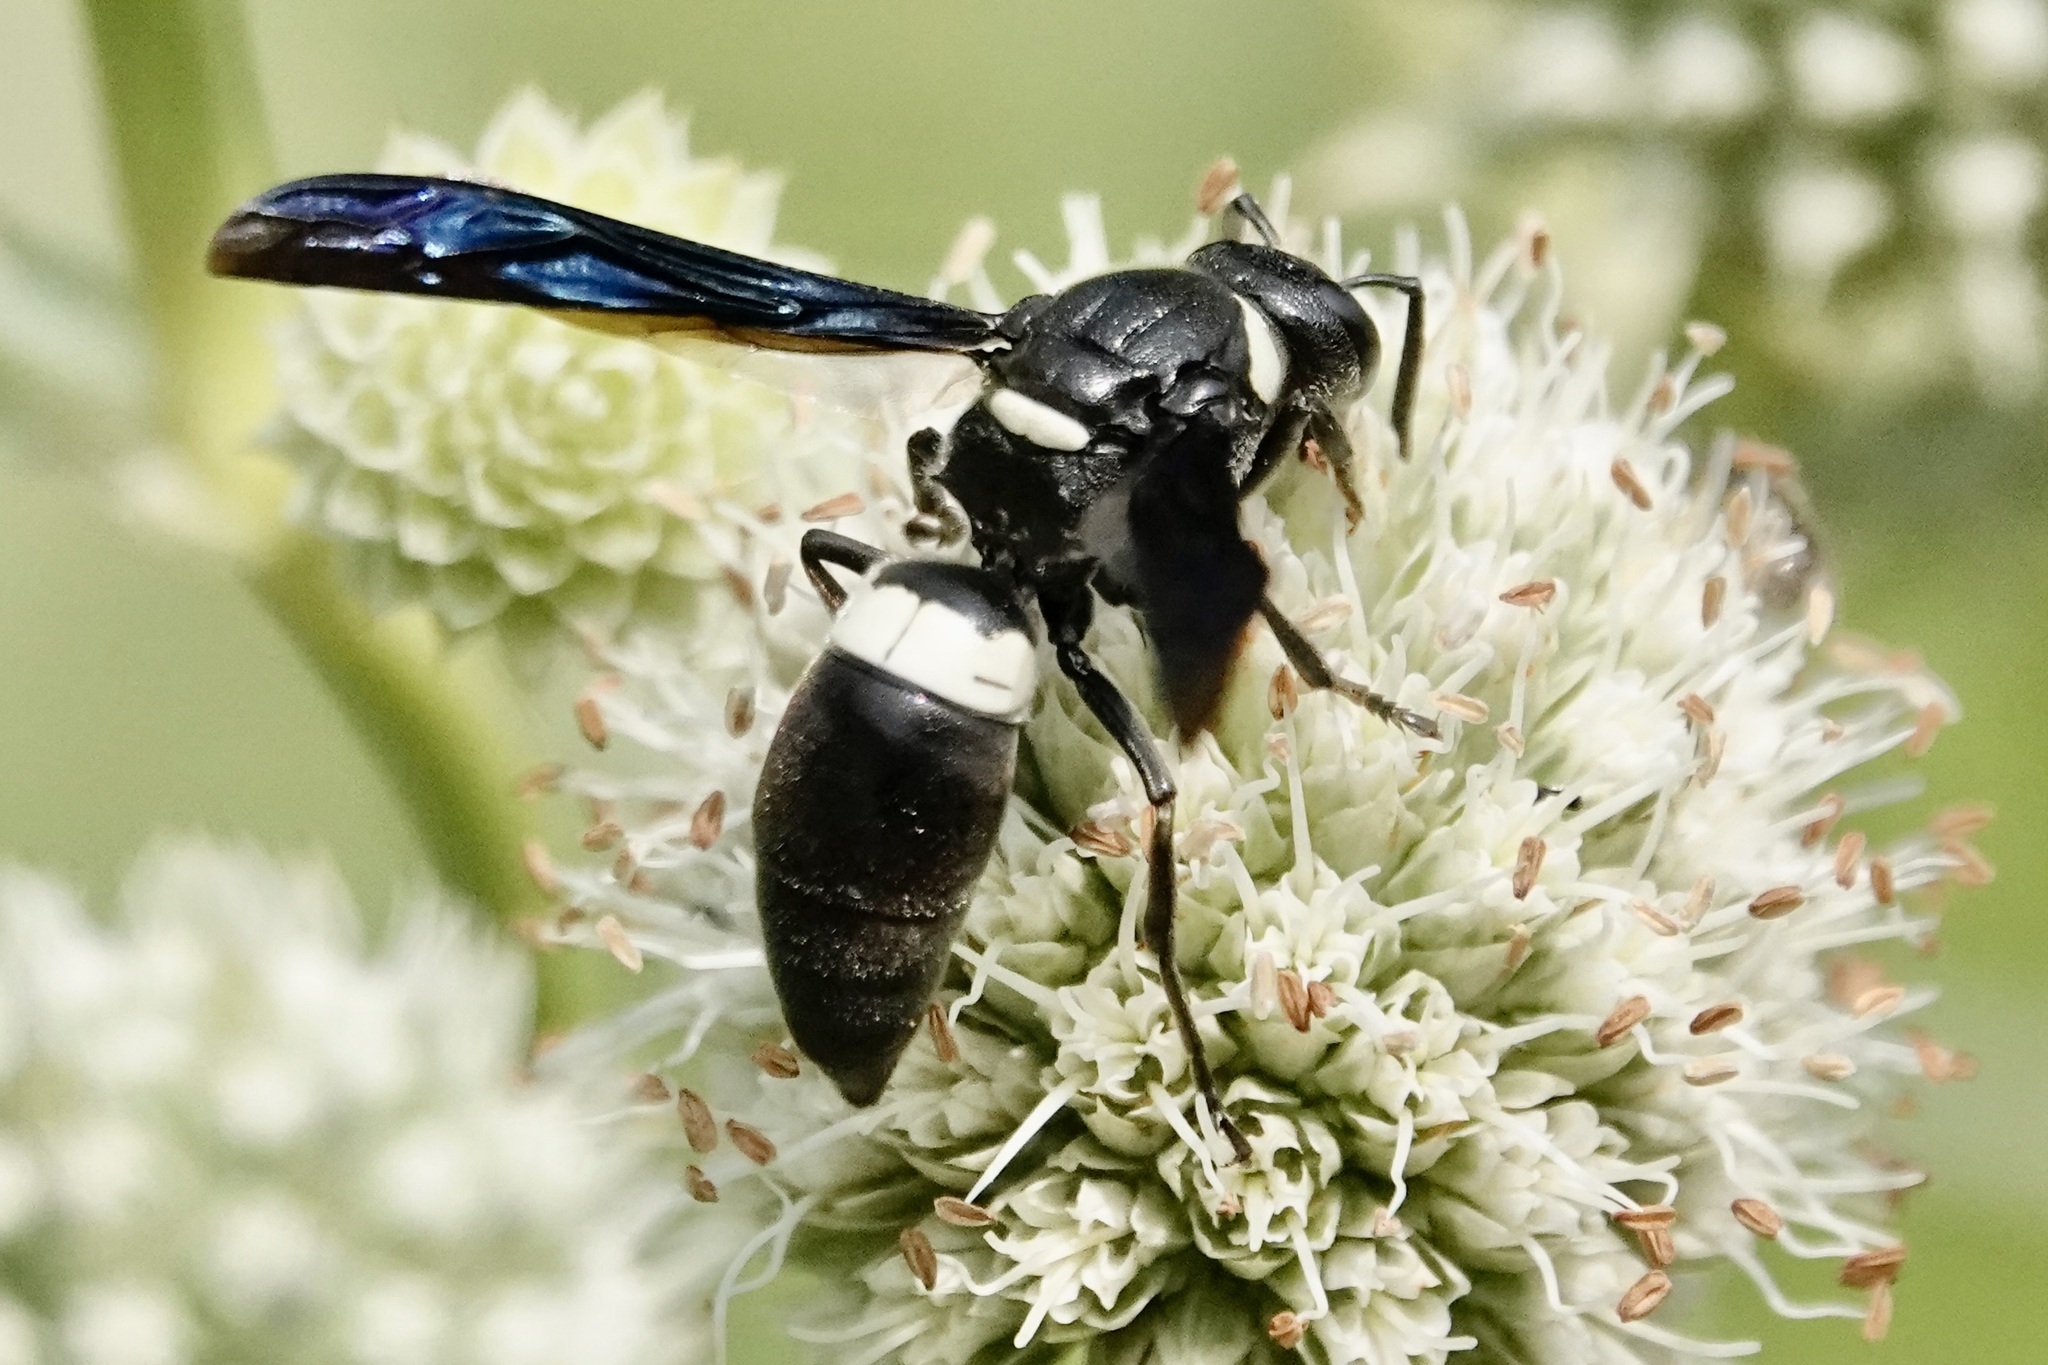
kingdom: Animalia
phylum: Arthropoda
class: Insecta
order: Hymenoptera
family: Eumenidae
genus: Monobia
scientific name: Monobia quadridens
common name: Four-toothed mason wasp
